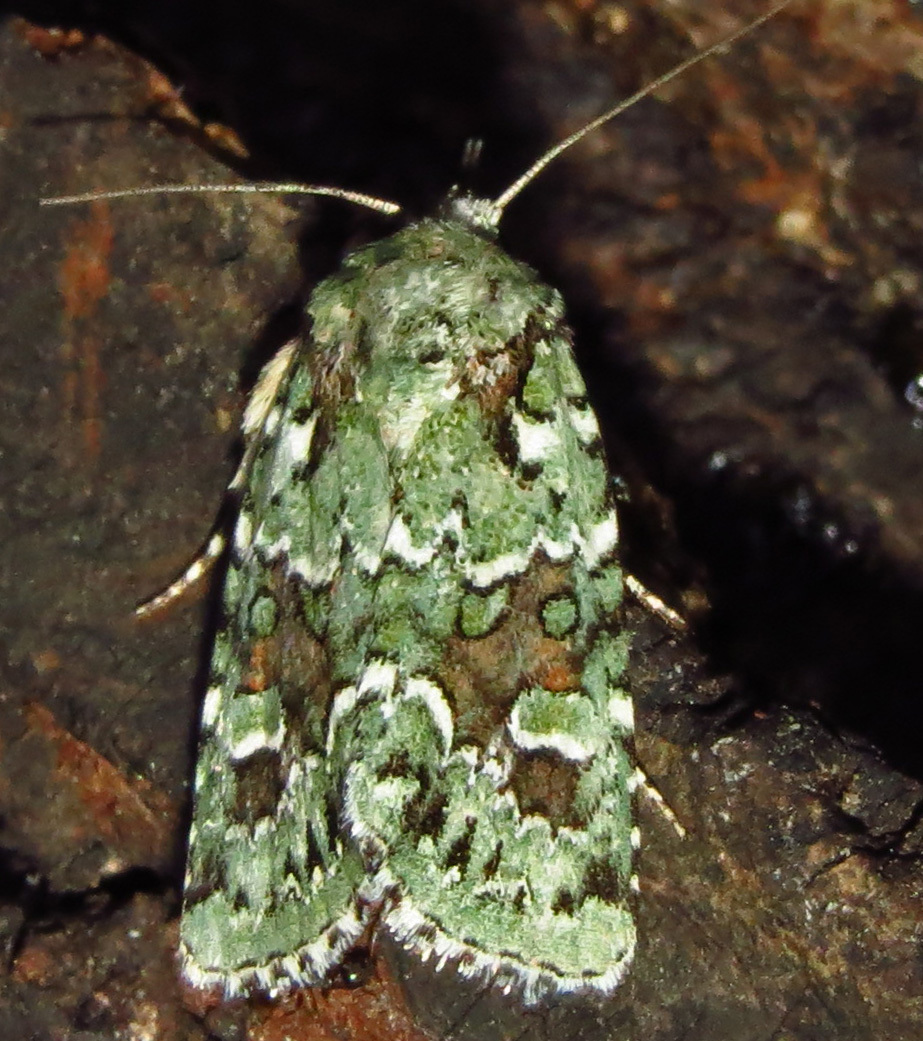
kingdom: Animalia
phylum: Arthropoda
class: Insecta
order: Lepidoptera
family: Noctuidae
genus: Lacinipolia
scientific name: Lacinipolia laudabilis
